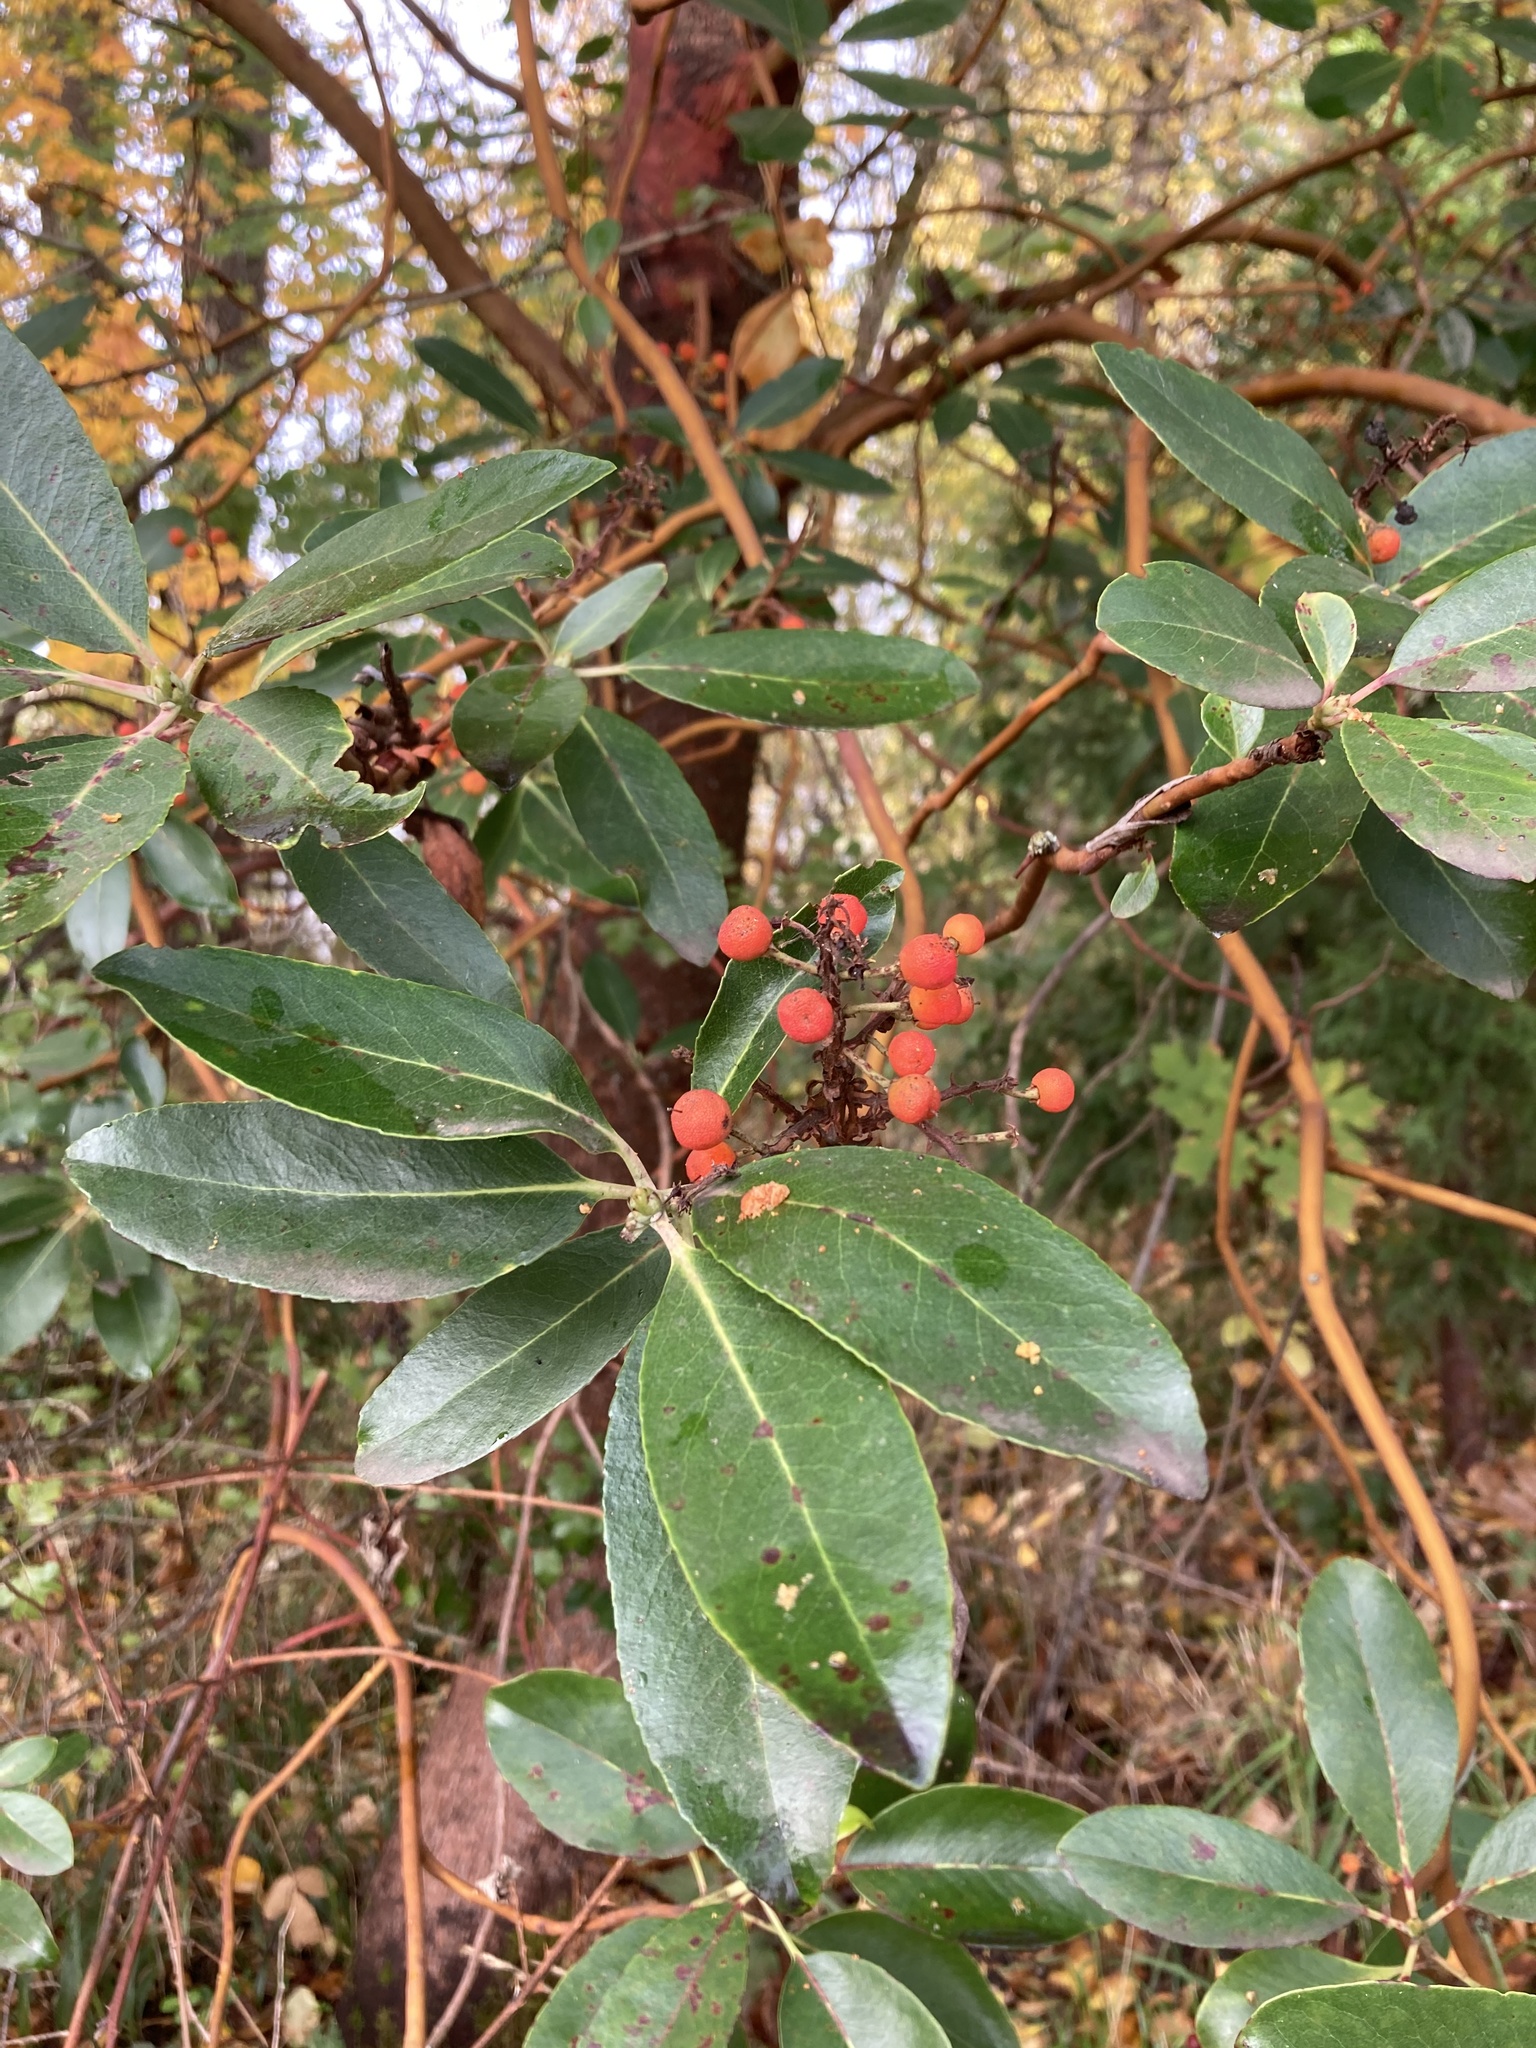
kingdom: Plantae
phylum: Tracheophyta
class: Magnoliopsida
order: Ericales
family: Ericaceae
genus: Arbutus
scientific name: Arbutus menziesii
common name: Pacific madrone
